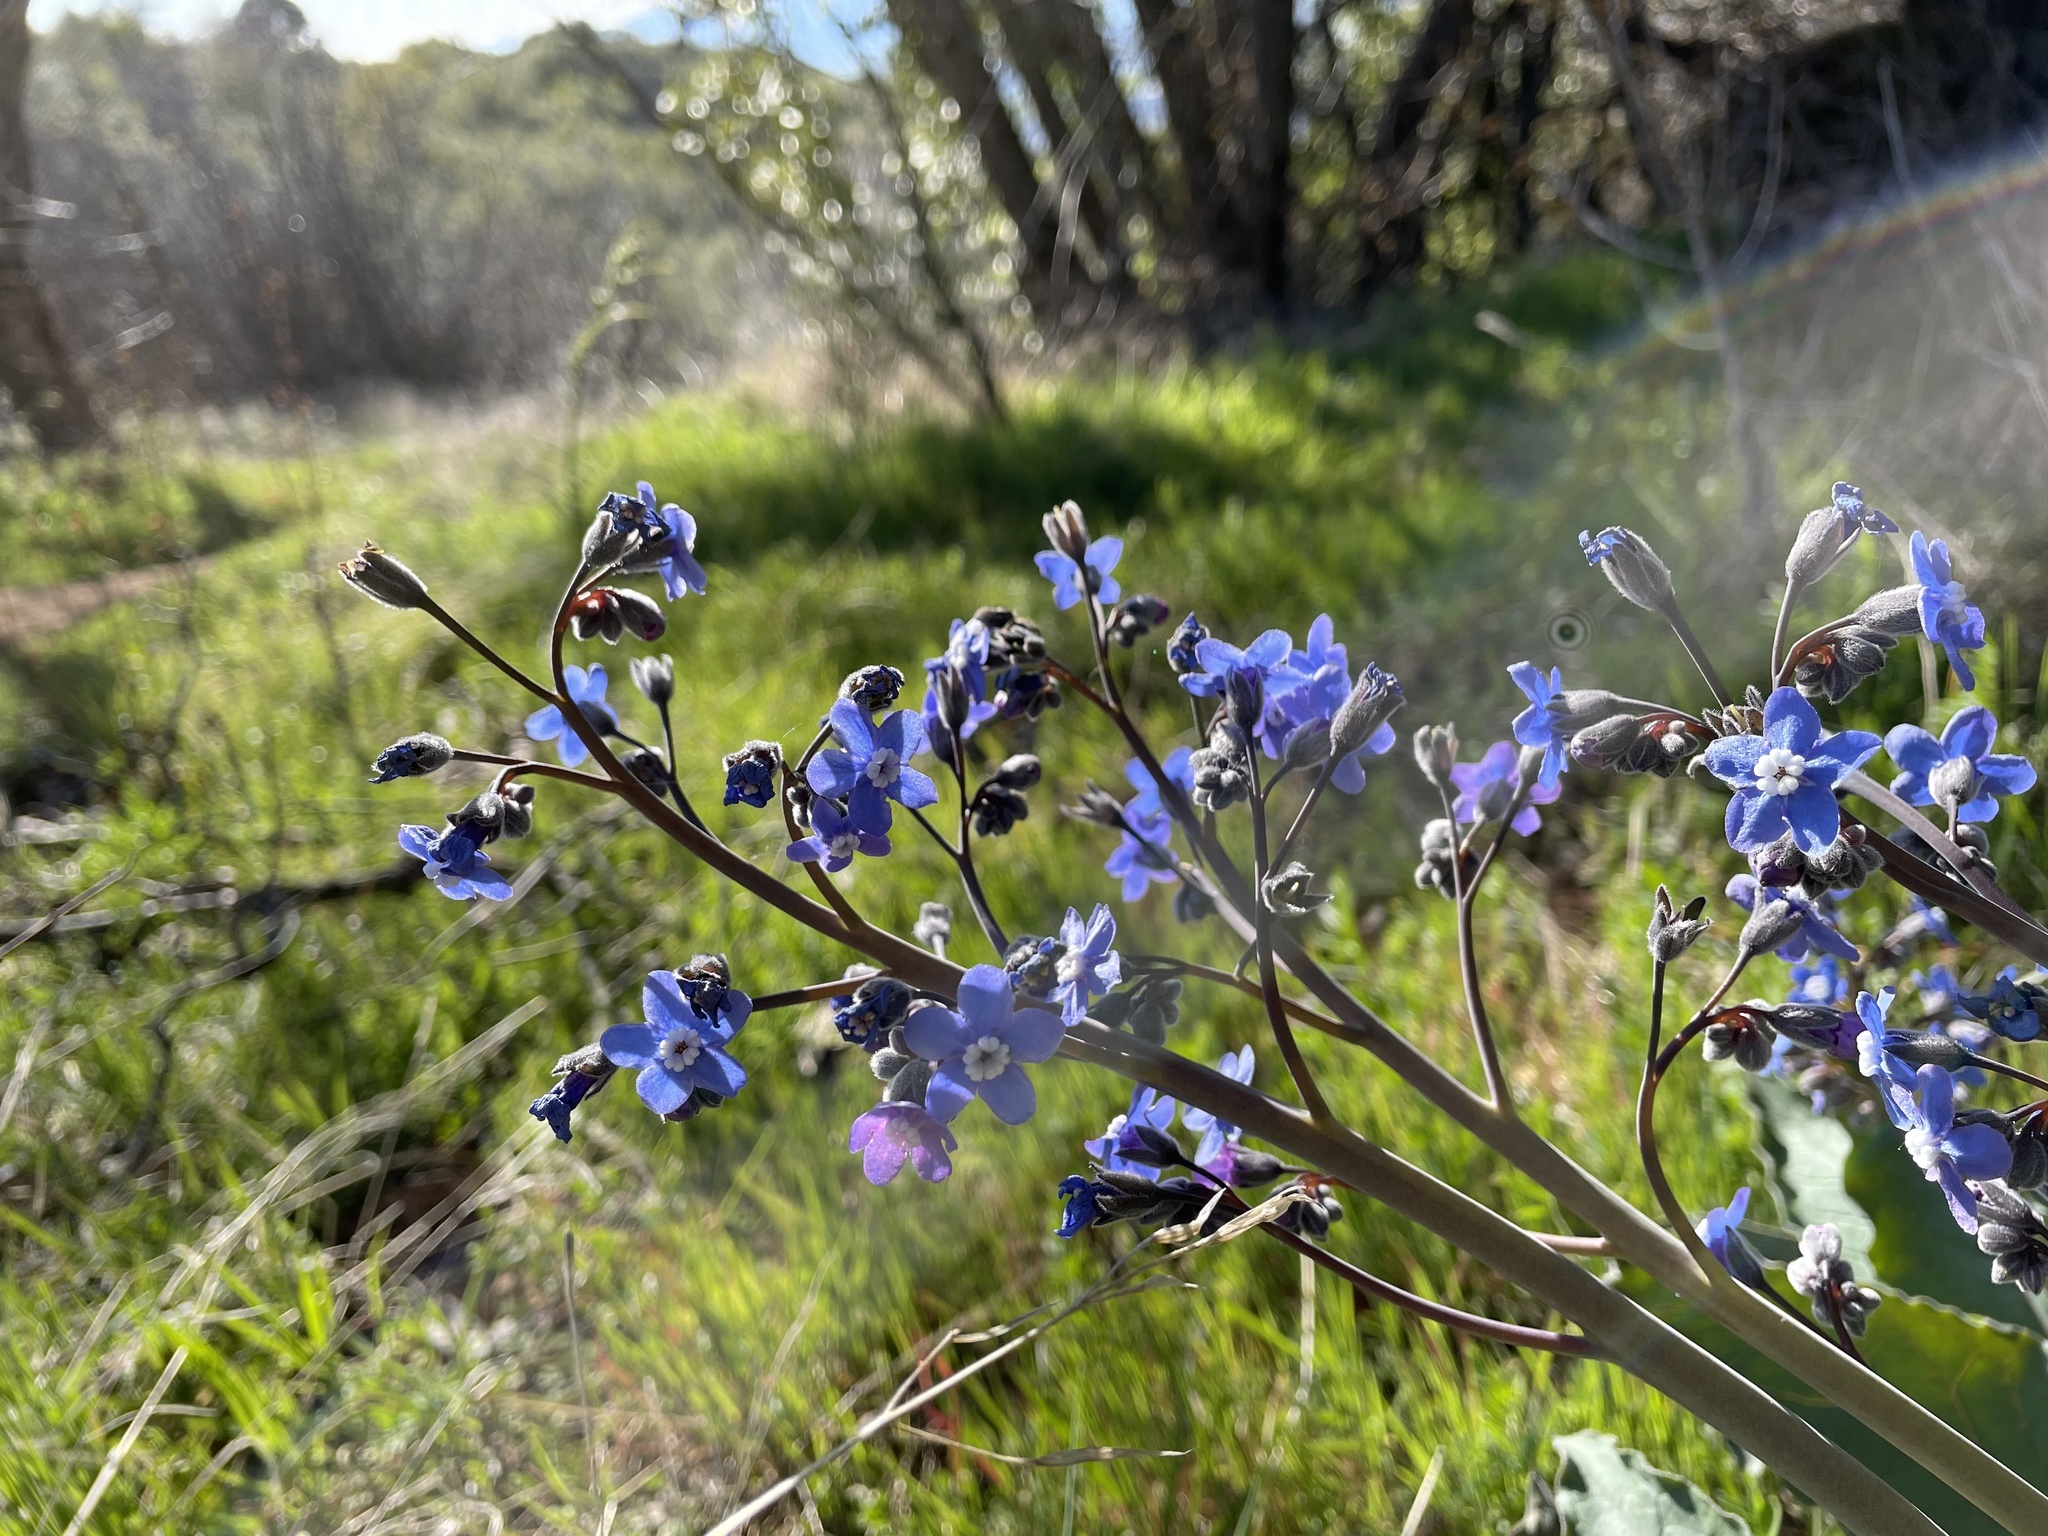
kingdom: Plantae
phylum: Tracheophyta
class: Magnoliopsida
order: Boraginales
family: Boraginaceae
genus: Adelinia
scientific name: Adelinia grande
